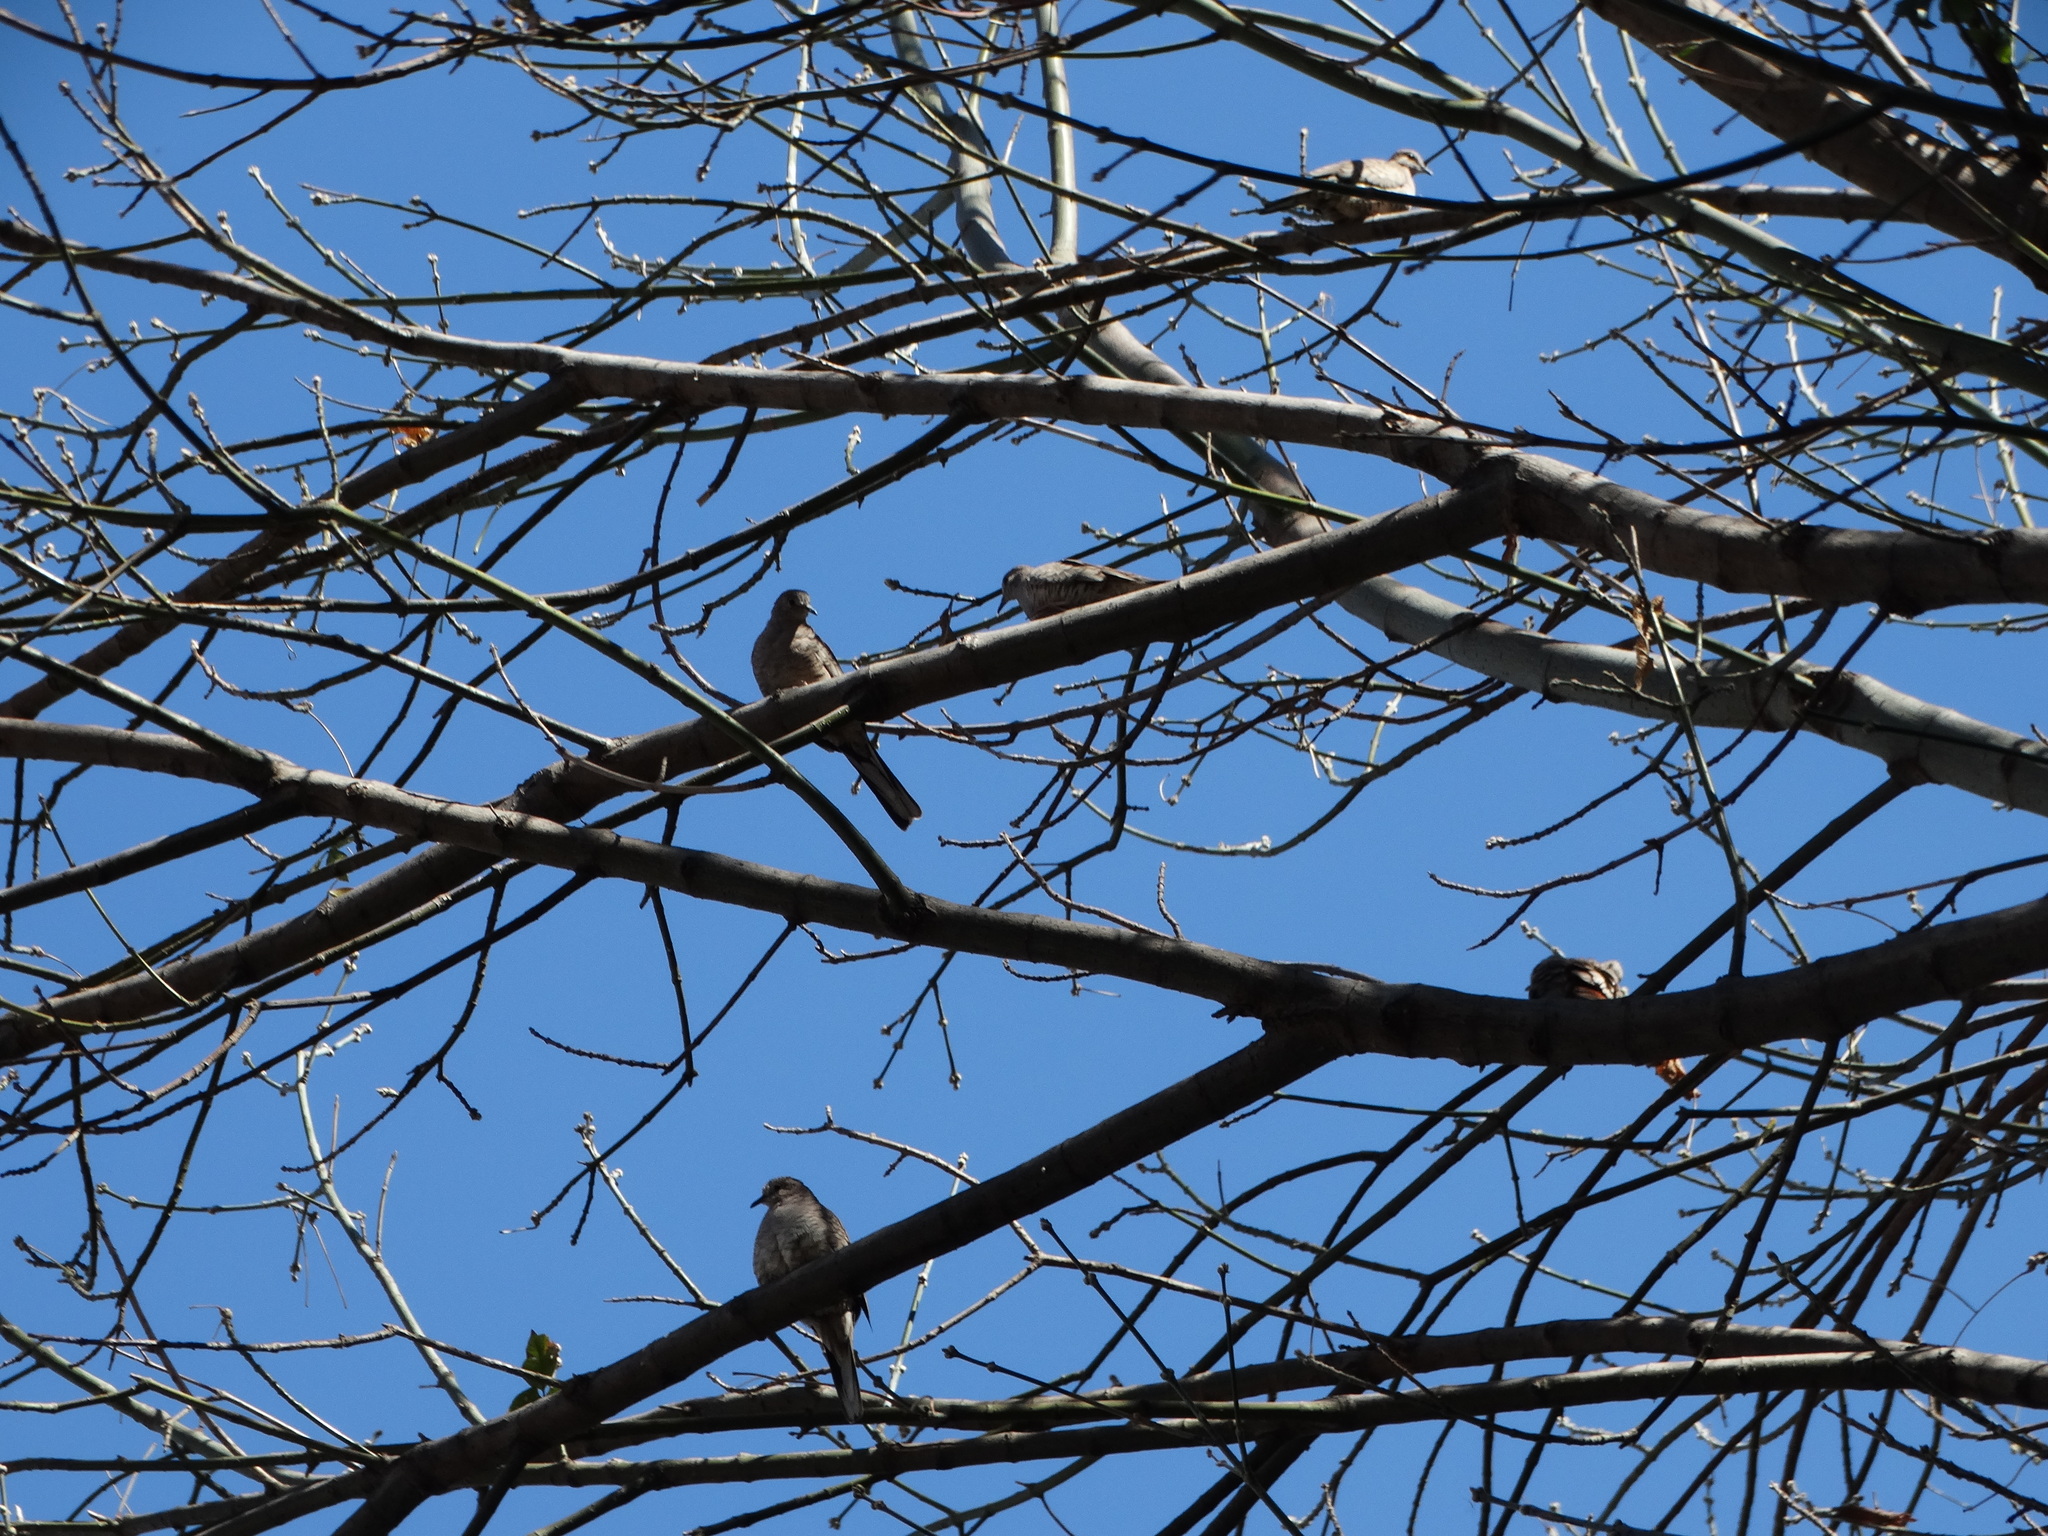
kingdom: Animalia
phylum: Chordata
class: Aves
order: Columbiformes
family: Columbidae
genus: Columbina
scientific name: Columbina inca
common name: Inca dove
